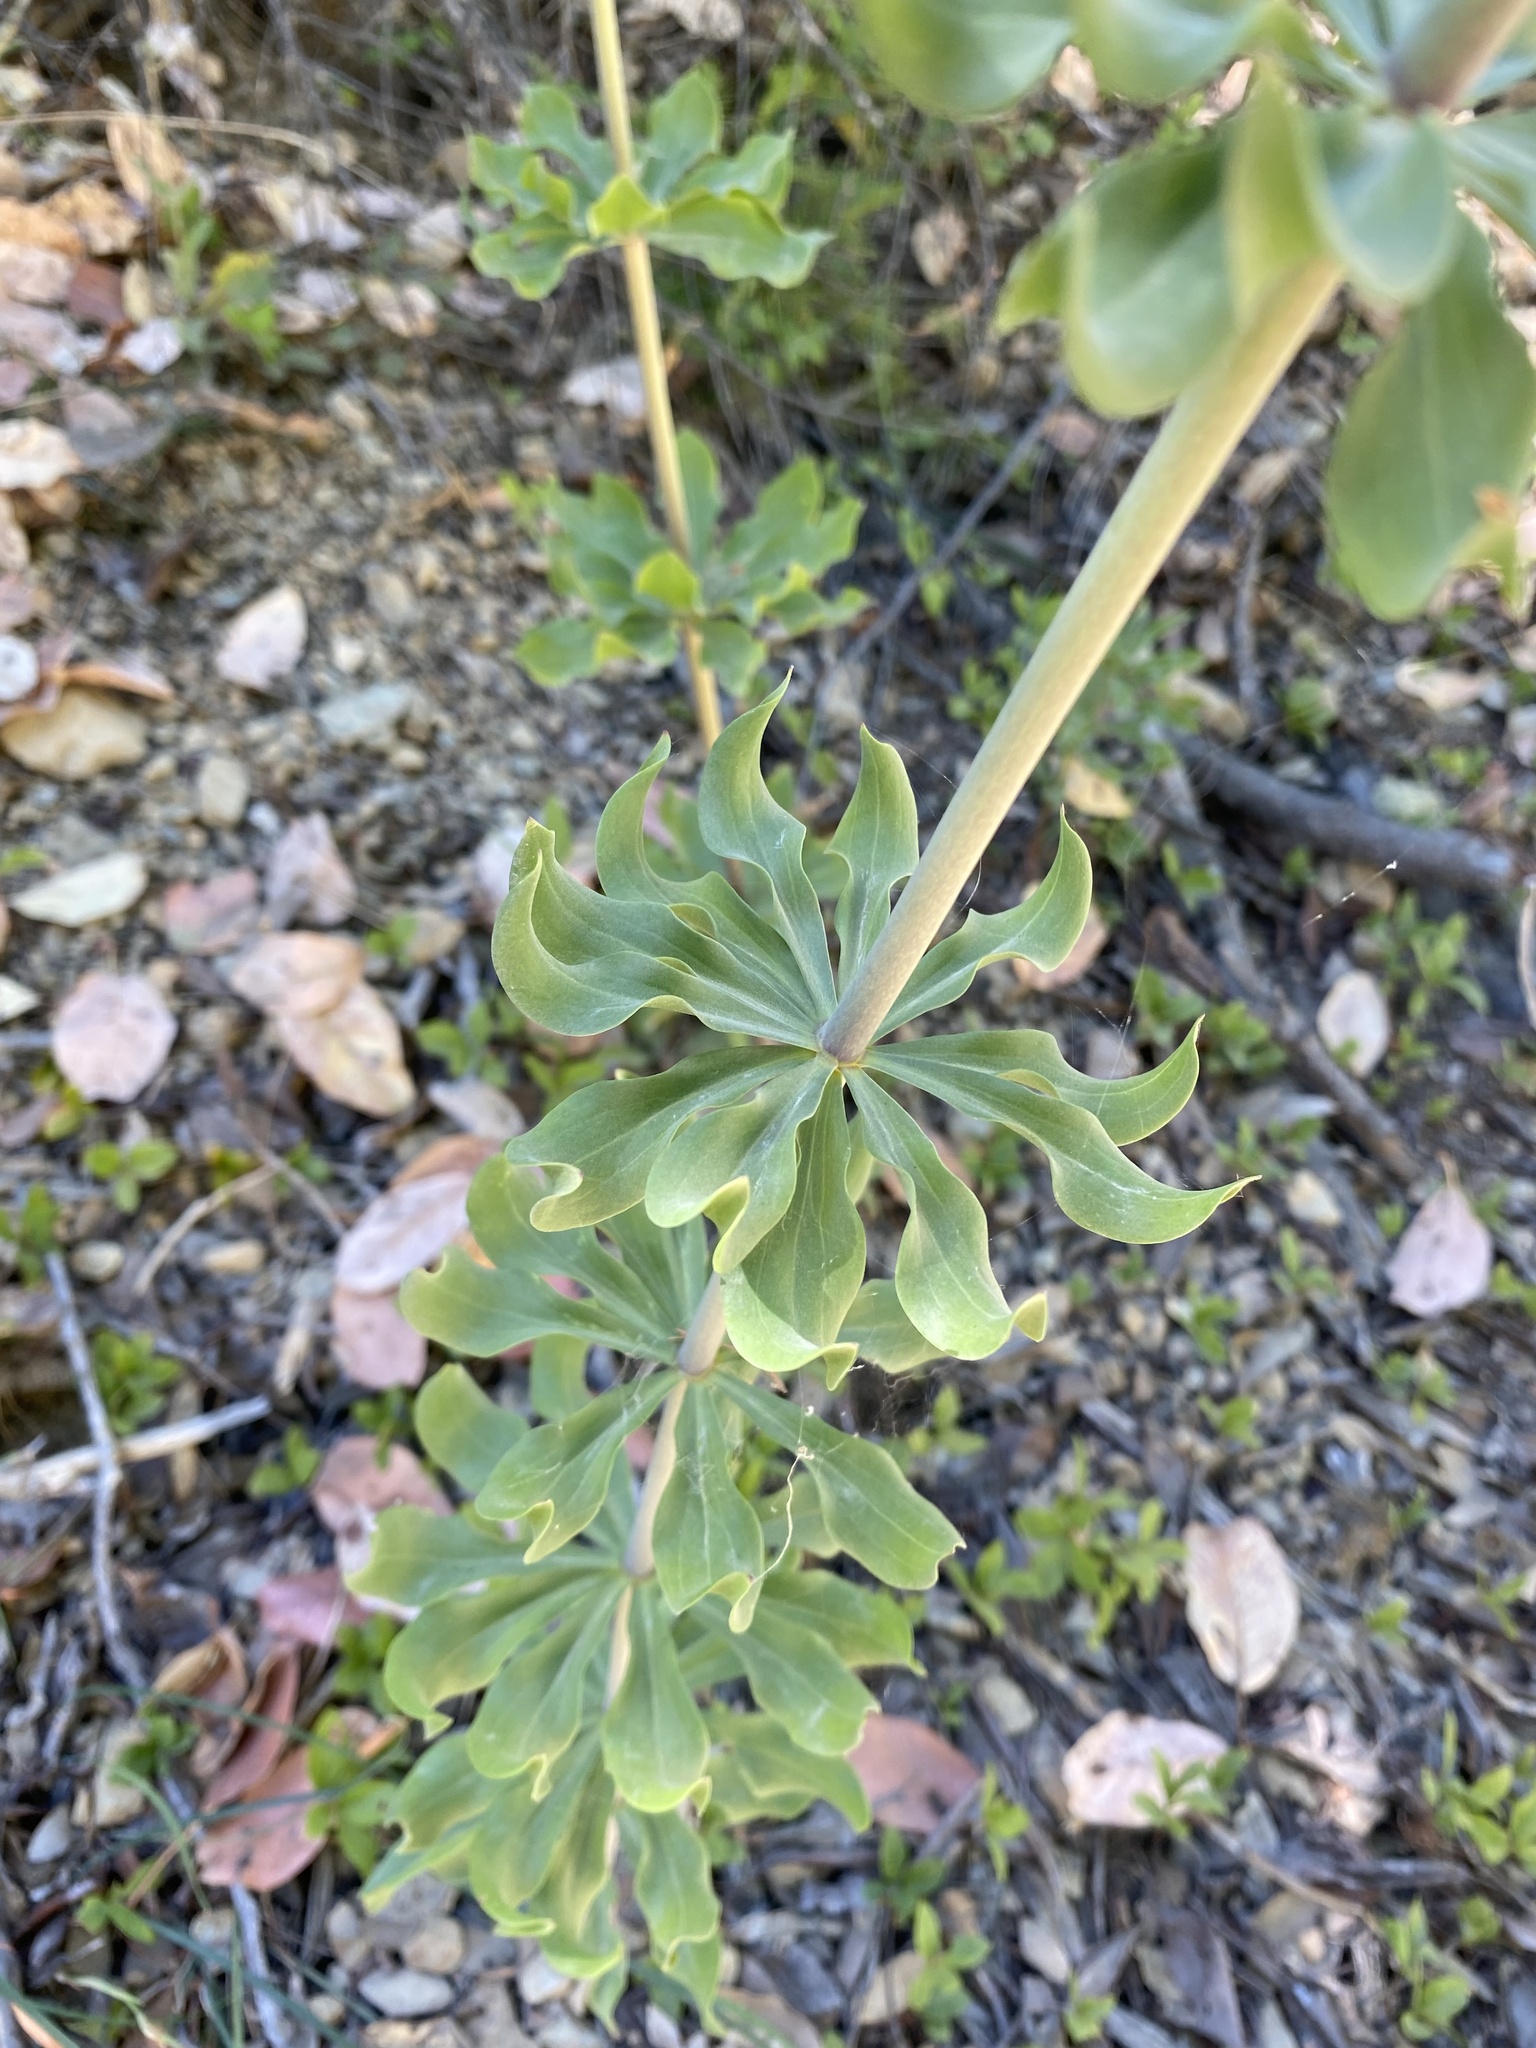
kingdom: Plantae
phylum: Tracheophyta
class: Liliopsida
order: Liliales
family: Liliaceae
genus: Lilium
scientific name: Lilium washingtonianum
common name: Washington lily
